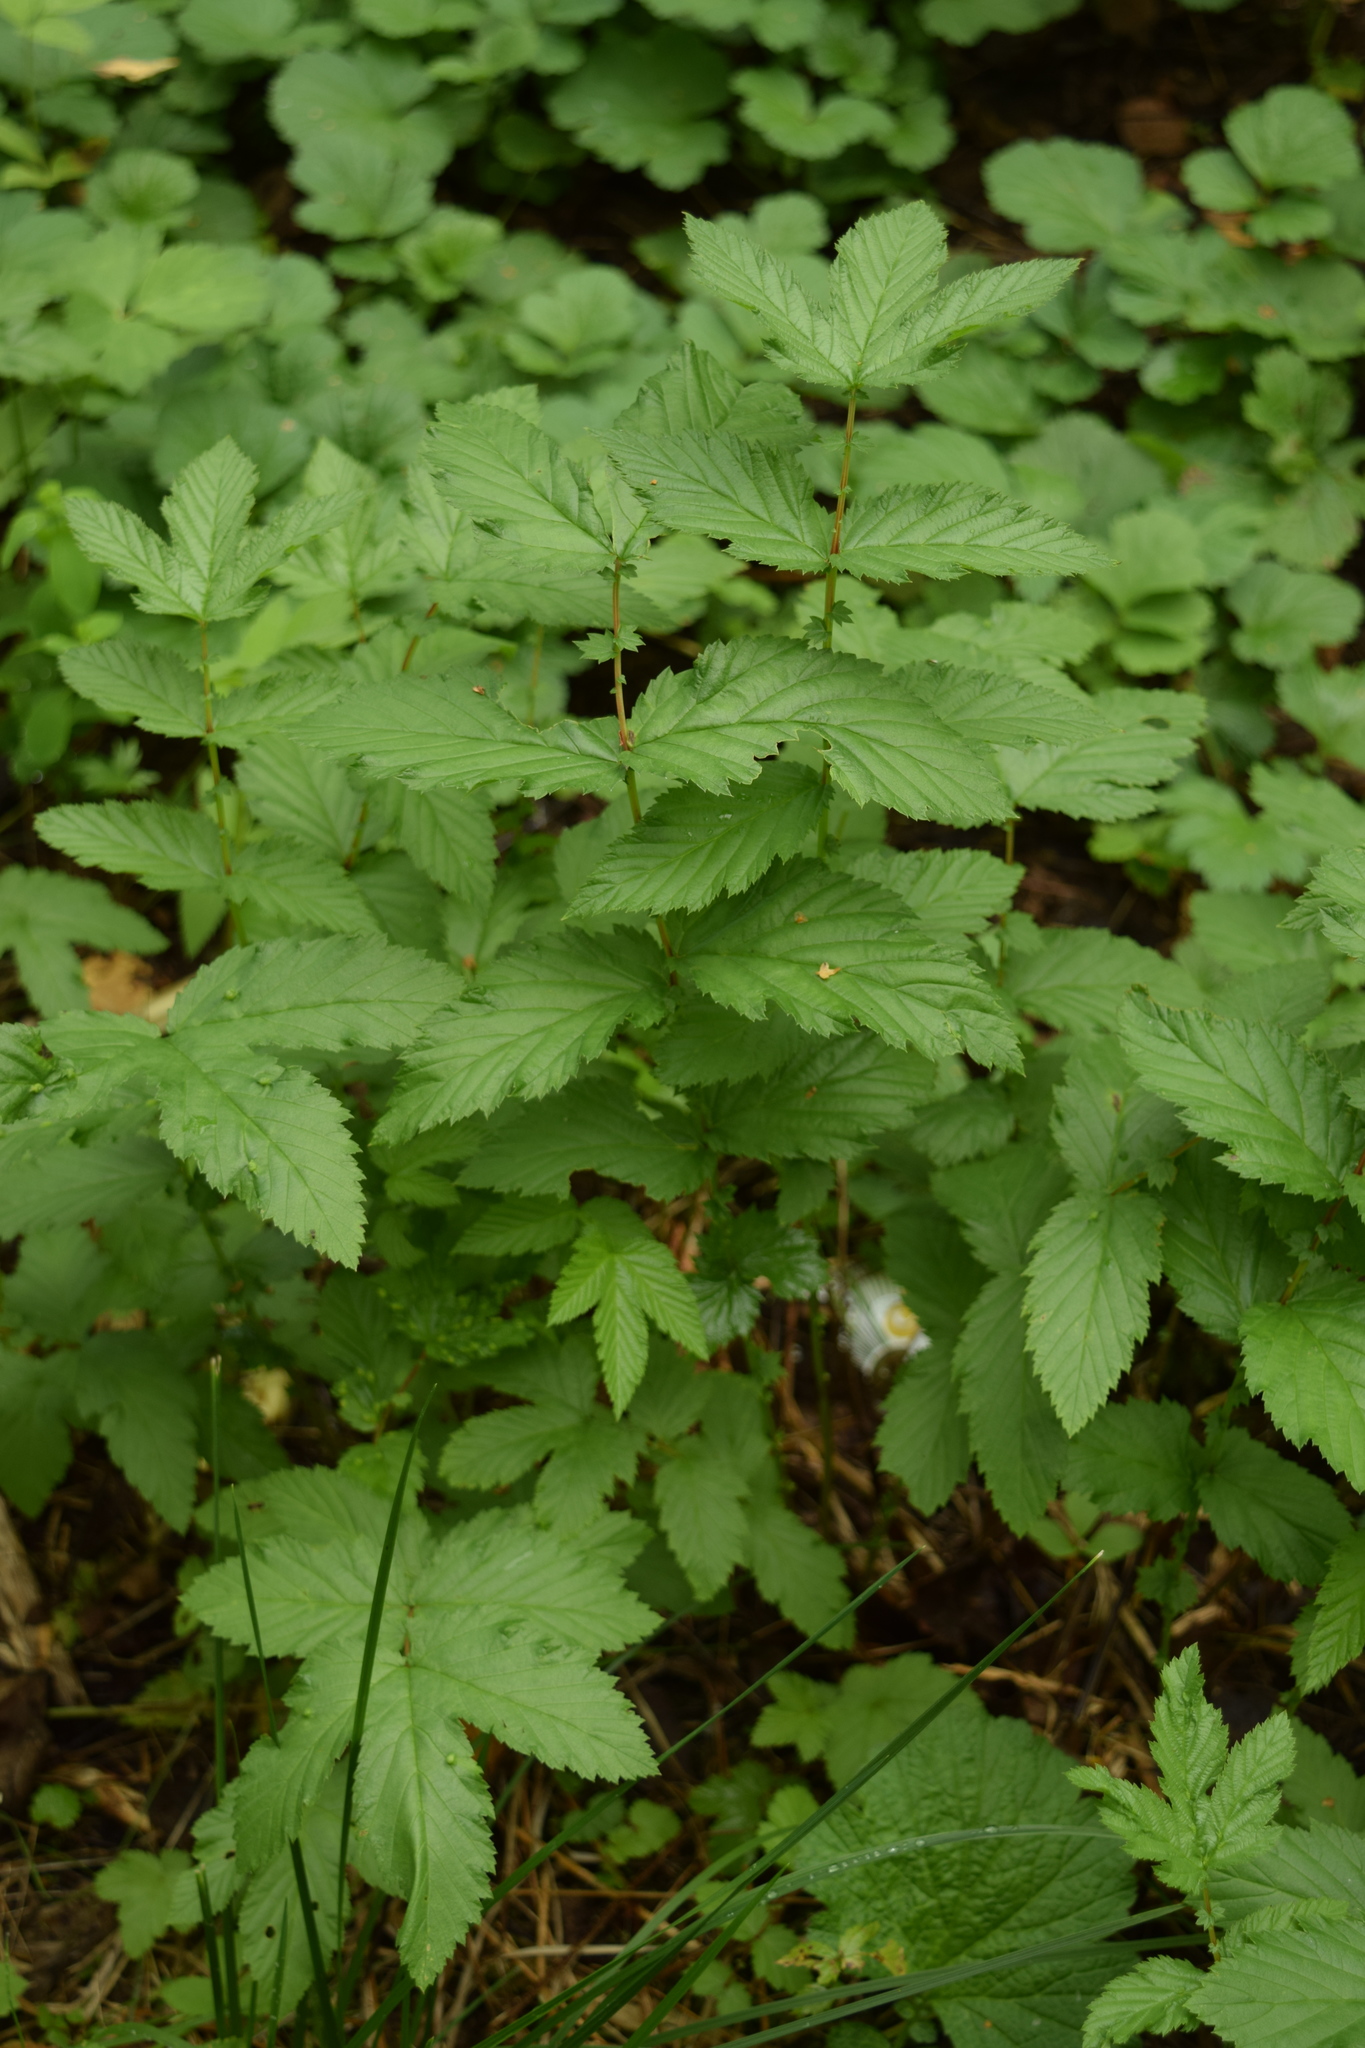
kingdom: Plantae
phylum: Tracheophyta
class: Magnoliopsida
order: Rosales
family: Rosaceae
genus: Filipendula
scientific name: Filipendula ulmaria
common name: Meadowsweet
